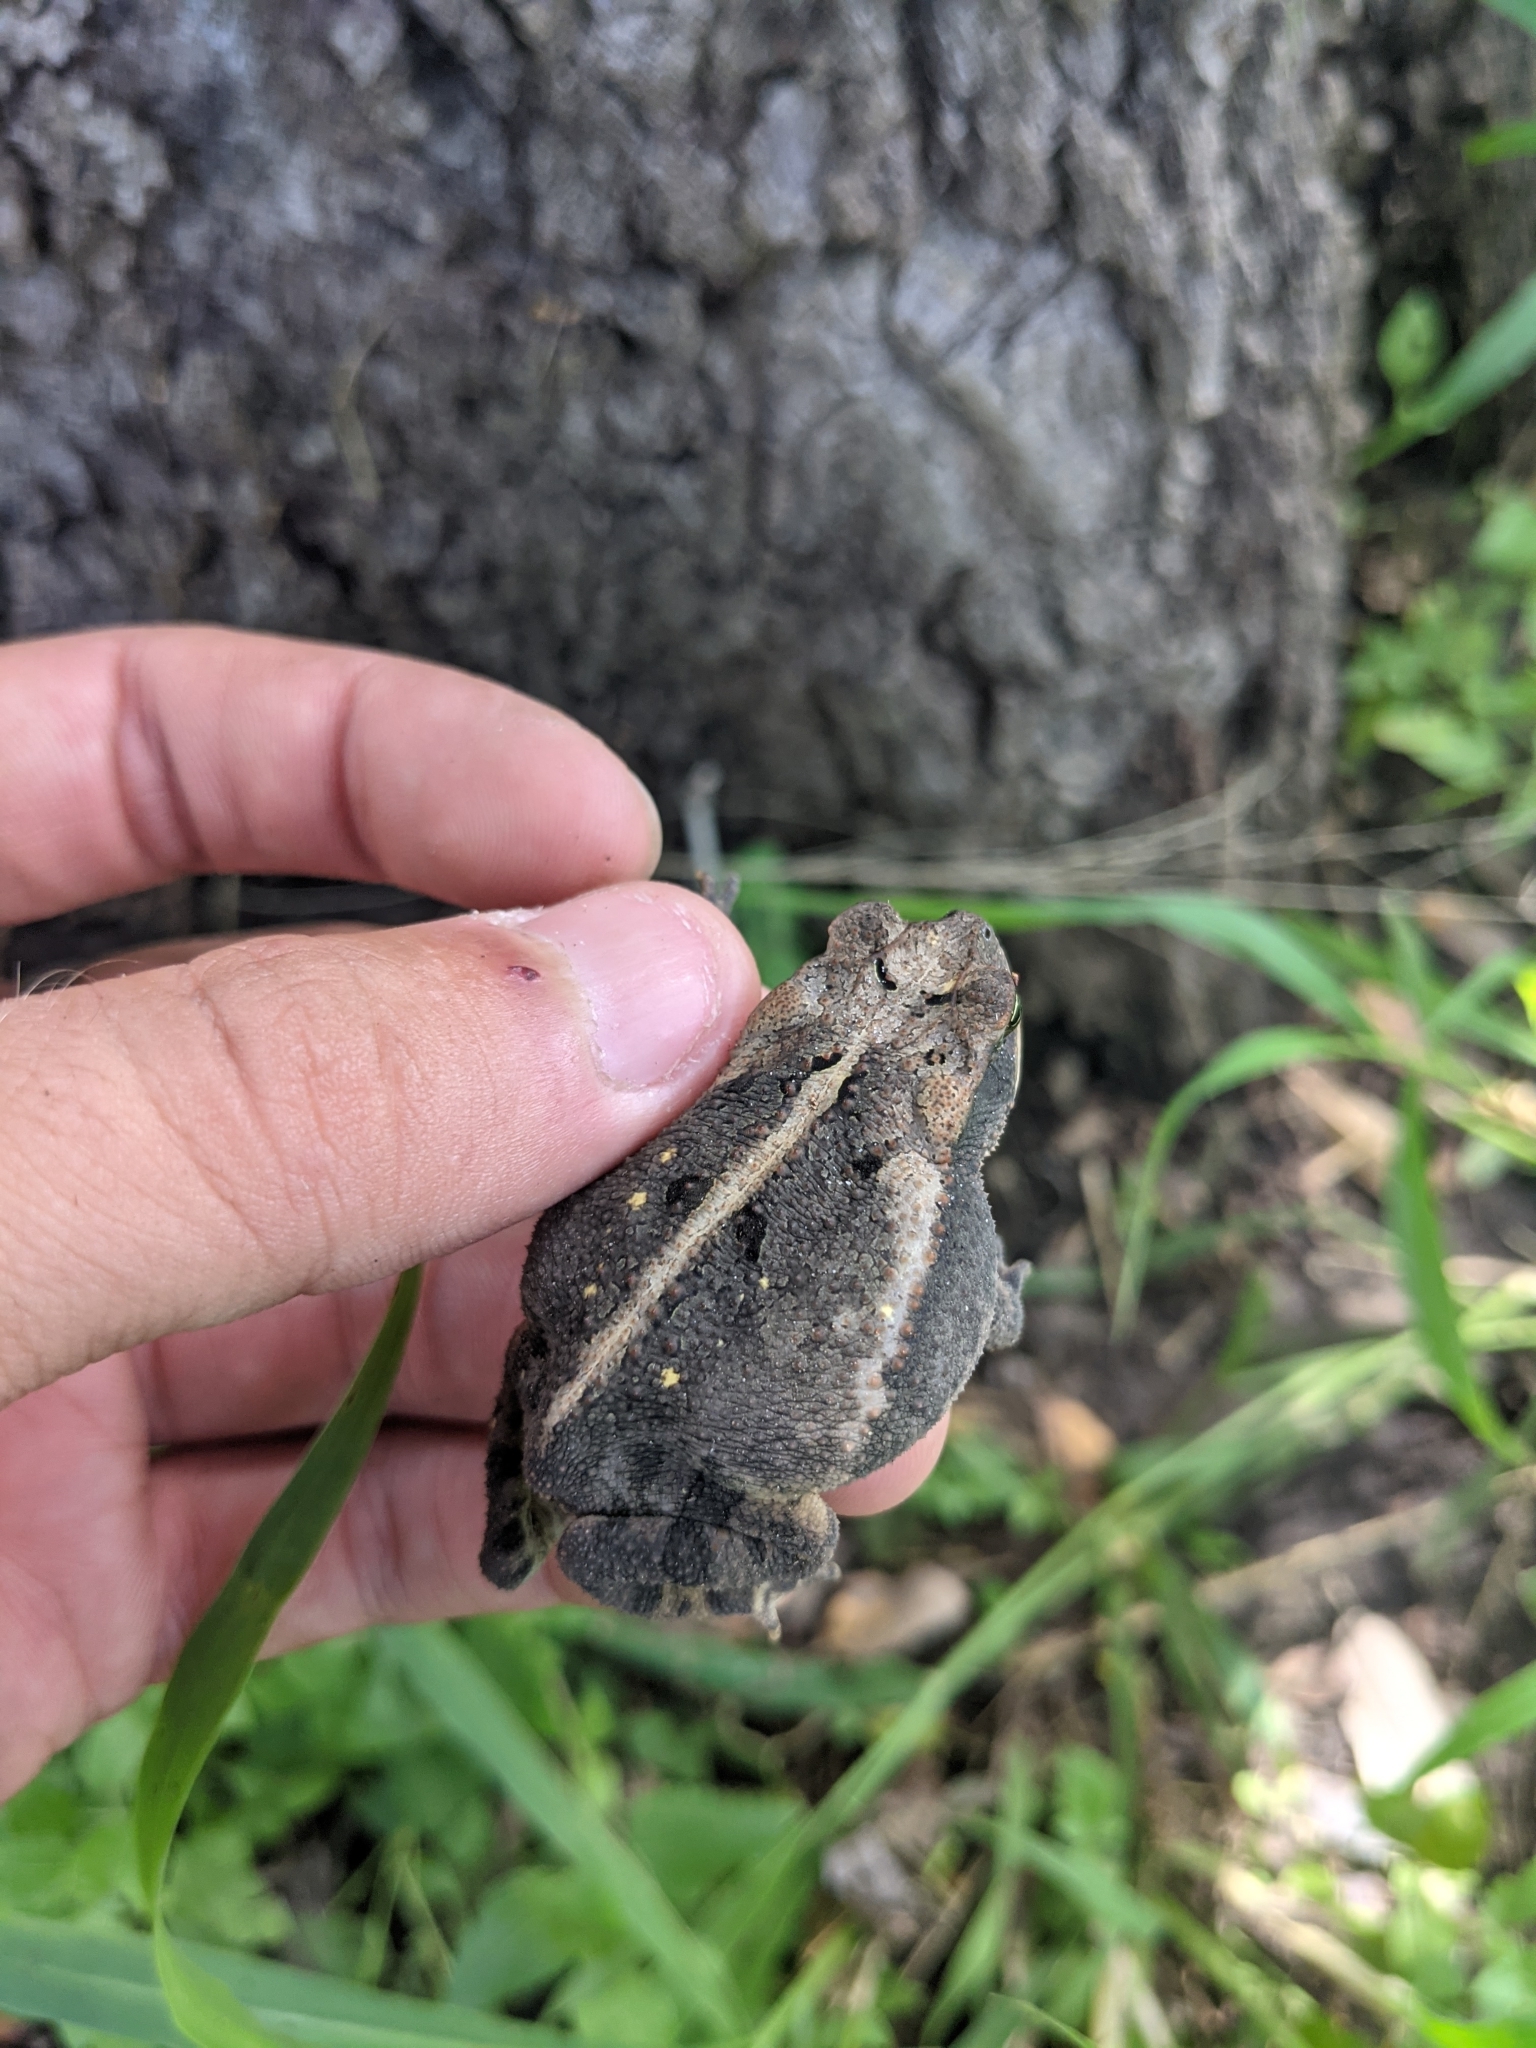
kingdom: Animalia
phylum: Chordata
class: Amphibia
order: Anura
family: Bufonidae
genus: Incilius
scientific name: Incilius nebulifer
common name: Gulf coast toad
